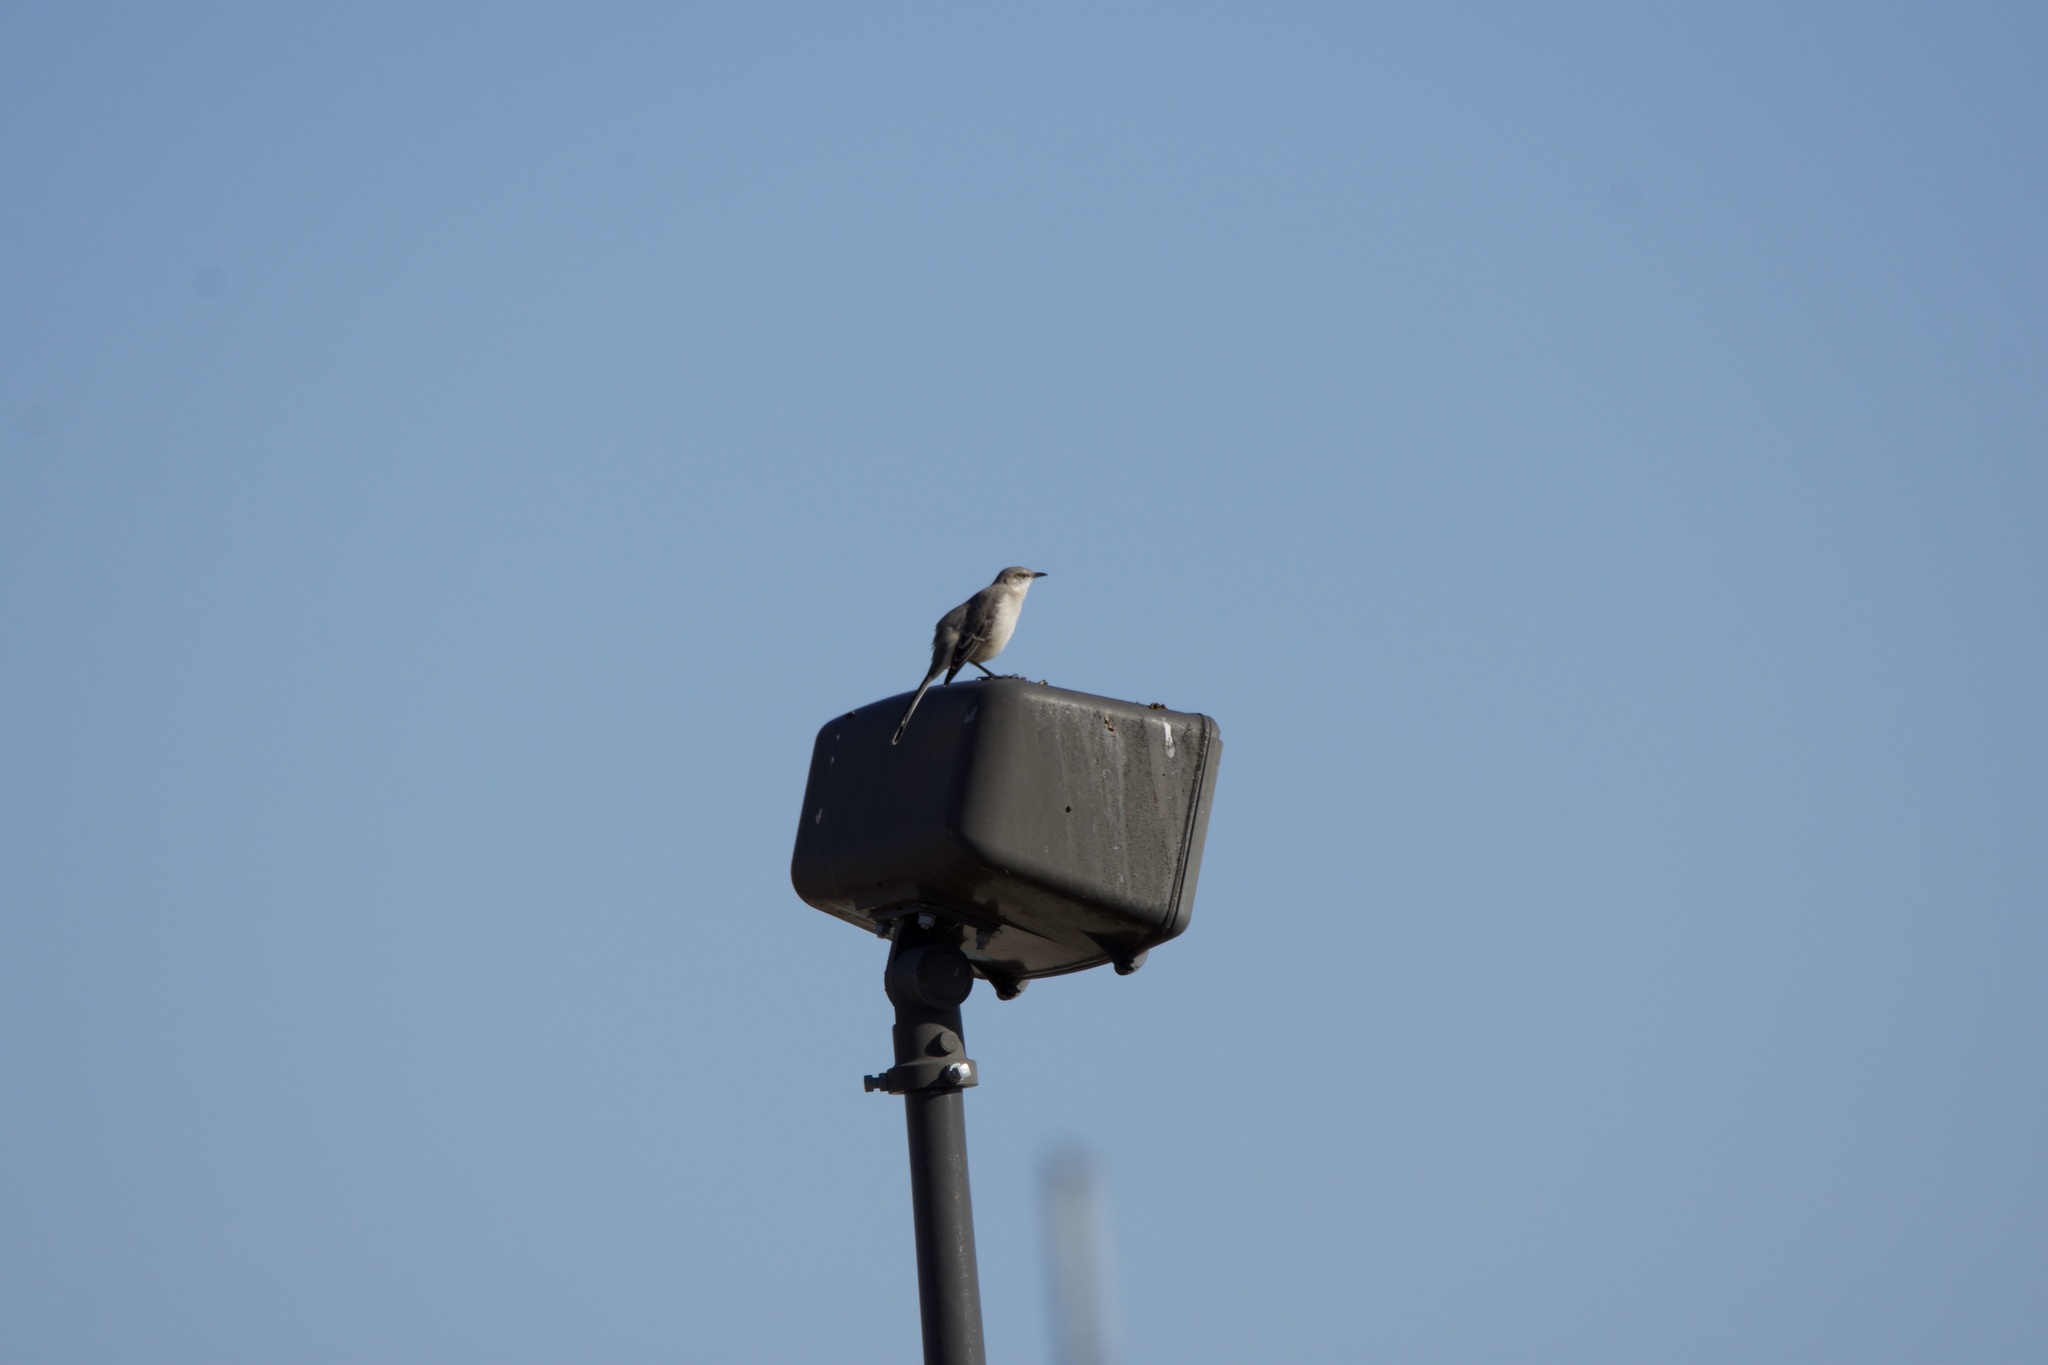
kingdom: Animalia
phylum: Chordata
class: Aves
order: Passeriformes
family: Mimidae
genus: Mimus
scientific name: Mimus polyglottos
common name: Northern mockingbird
